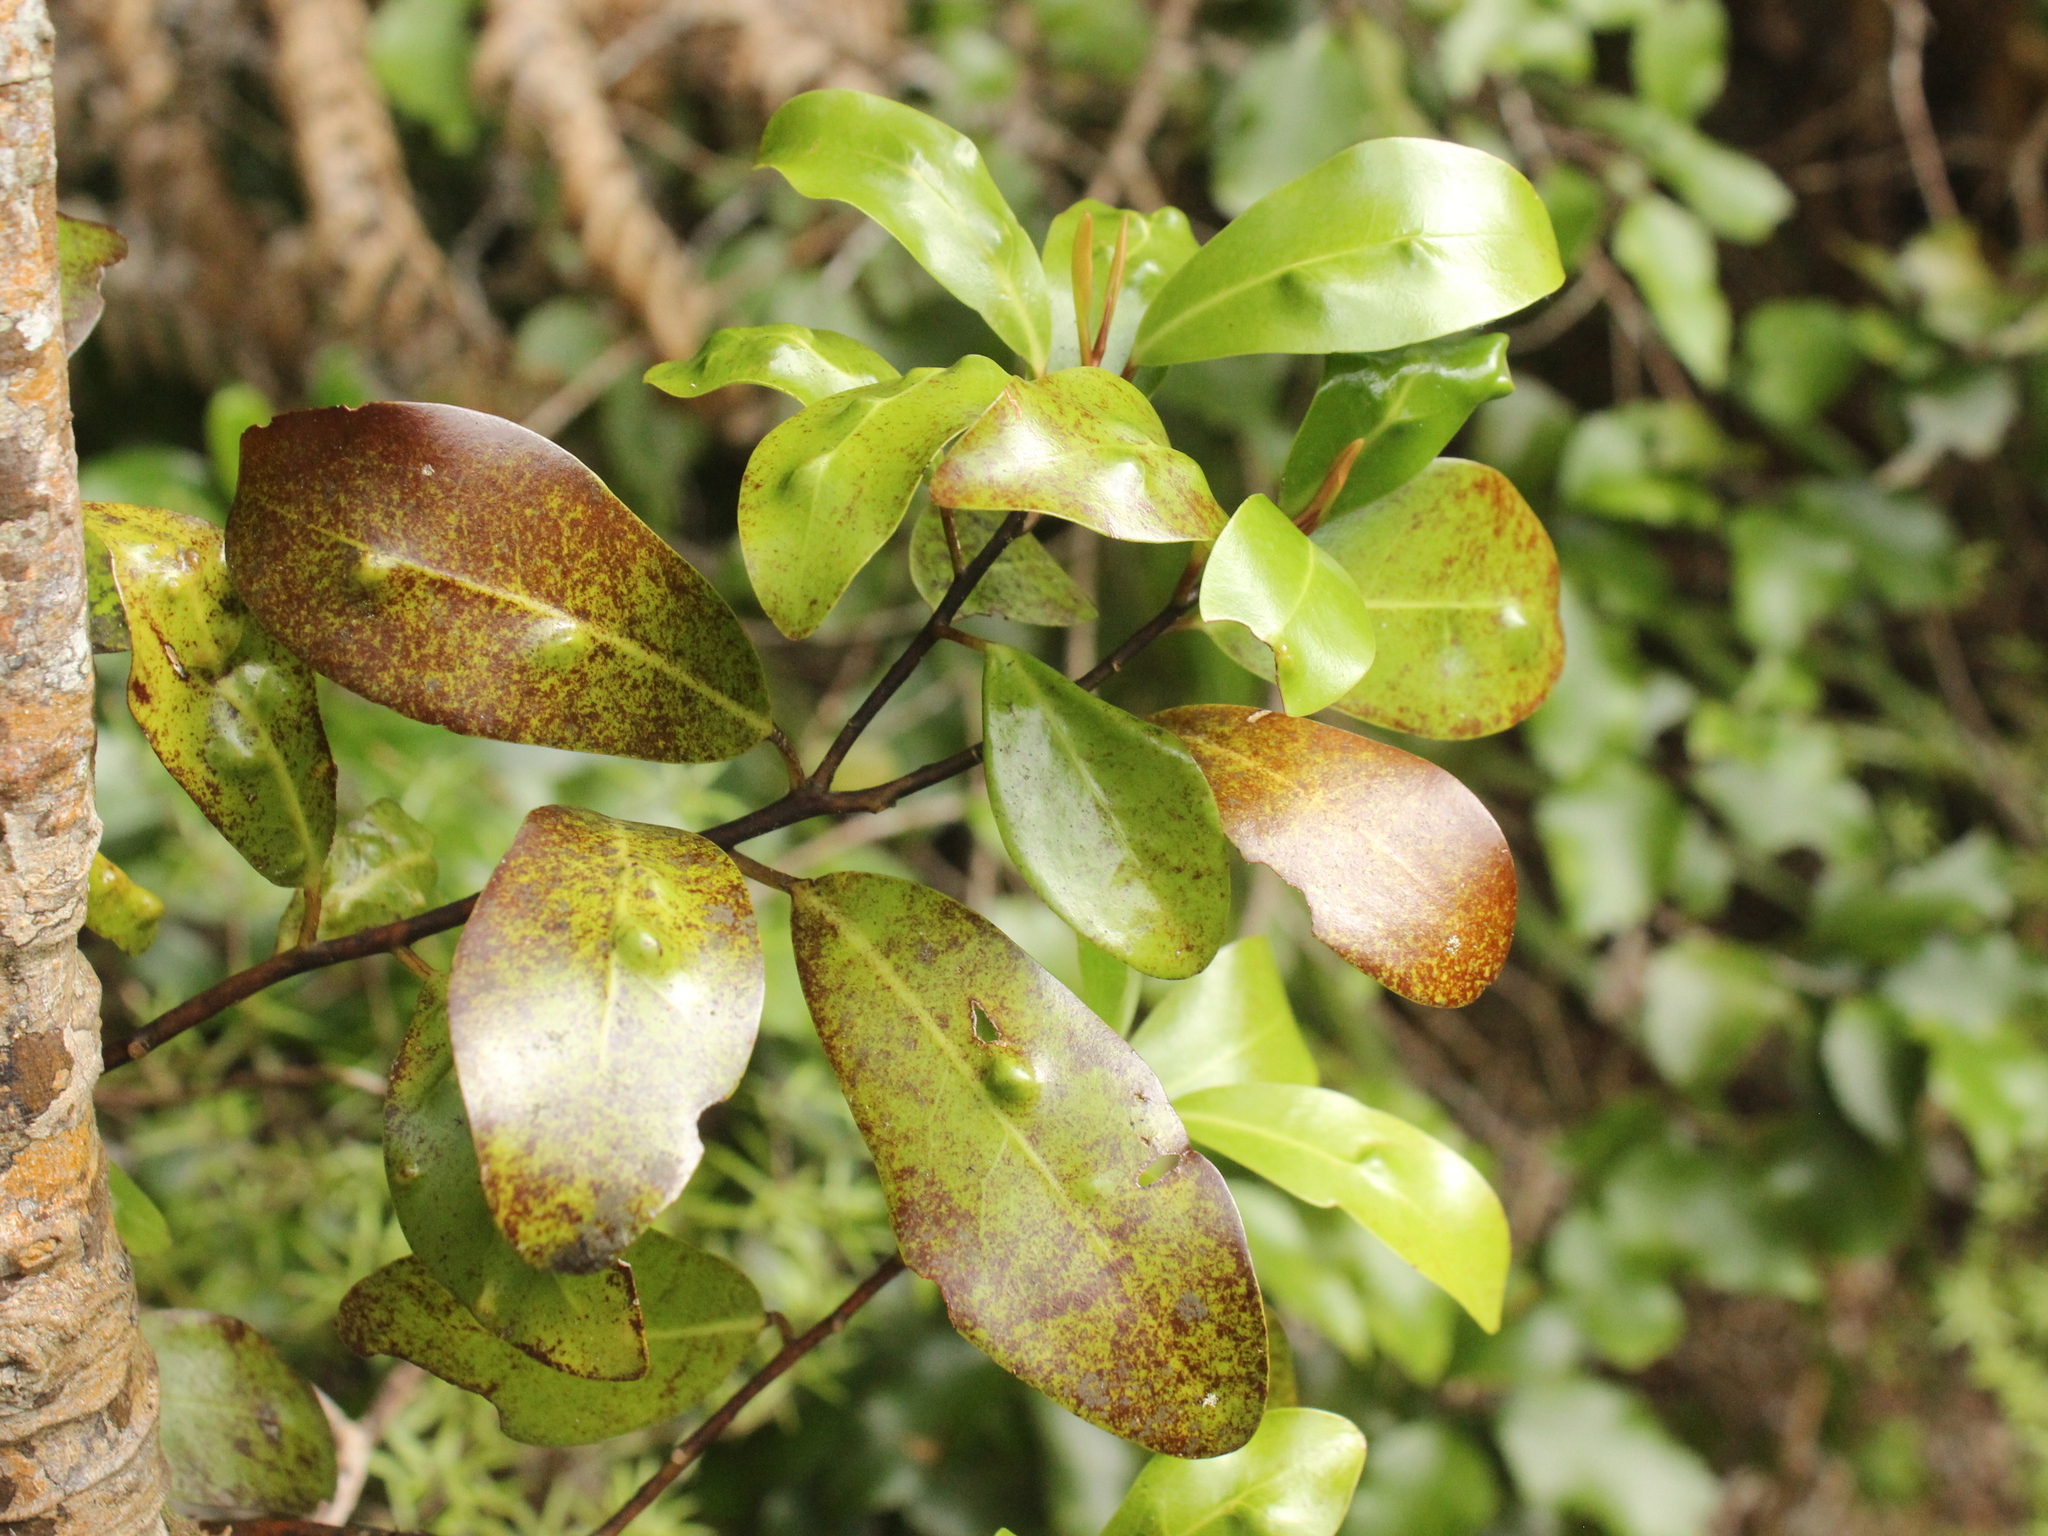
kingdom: Plantae
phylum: Tracheophyta
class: Magnoliopsida
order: Canellales
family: Winteraceae
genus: Pseudowintera
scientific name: Pseudowintera axillaris
